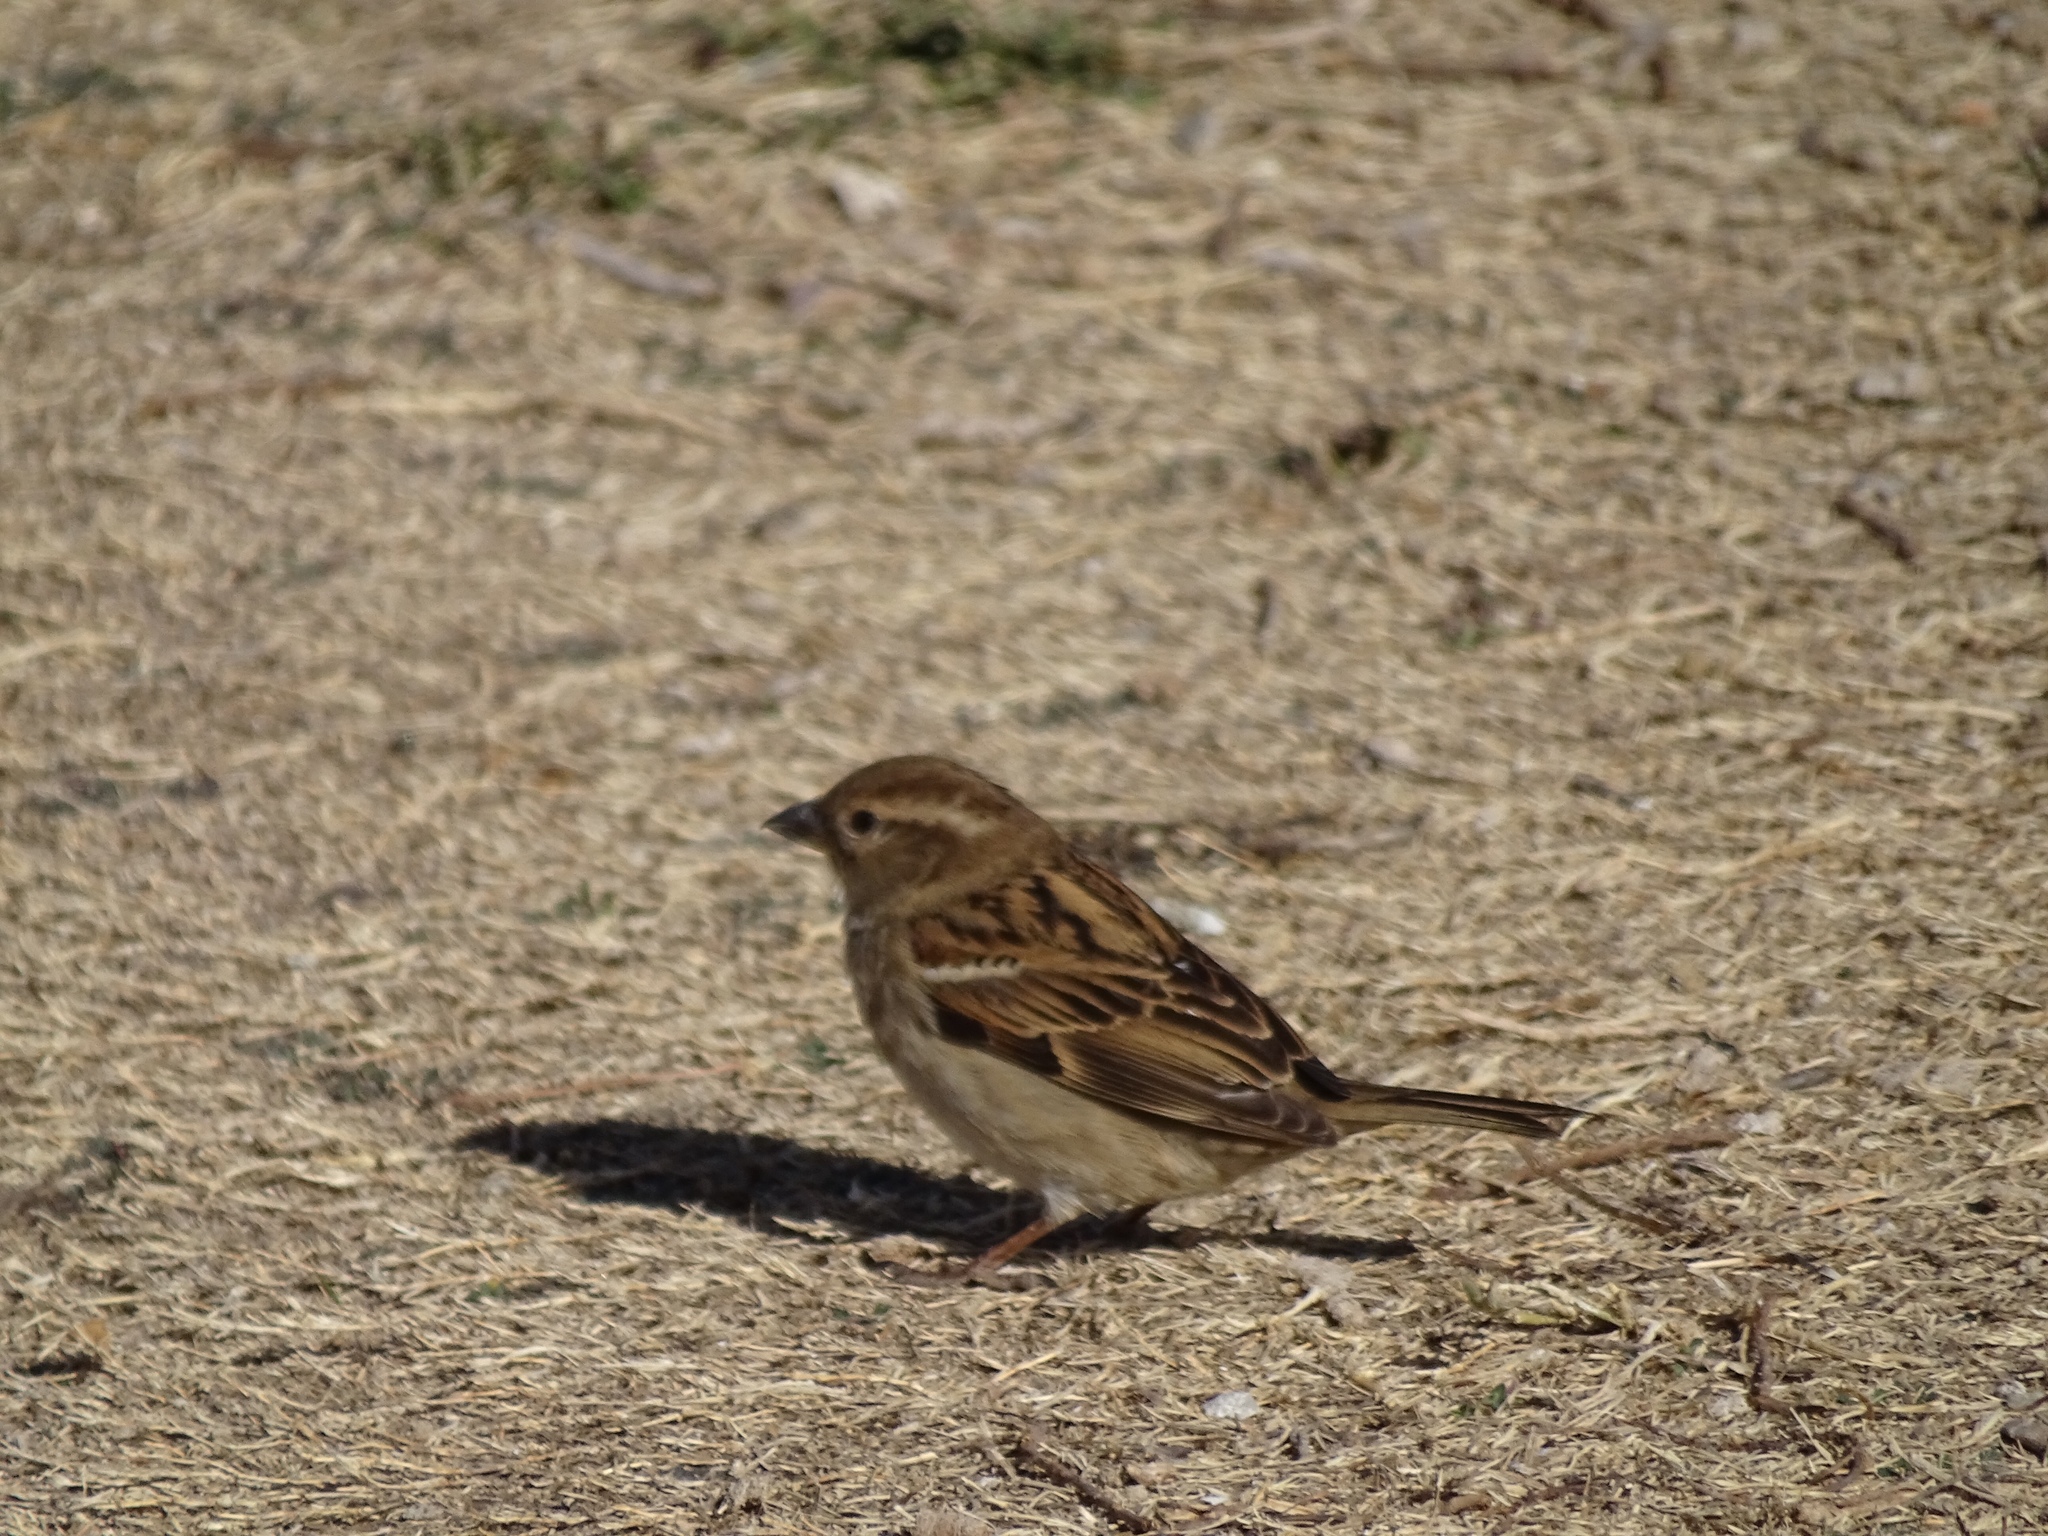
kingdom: Animalia
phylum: Chordata
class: Aves
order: Passeriformes
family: Passeridae
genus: Passer
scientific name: Passer domesticus
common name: House sparrow
